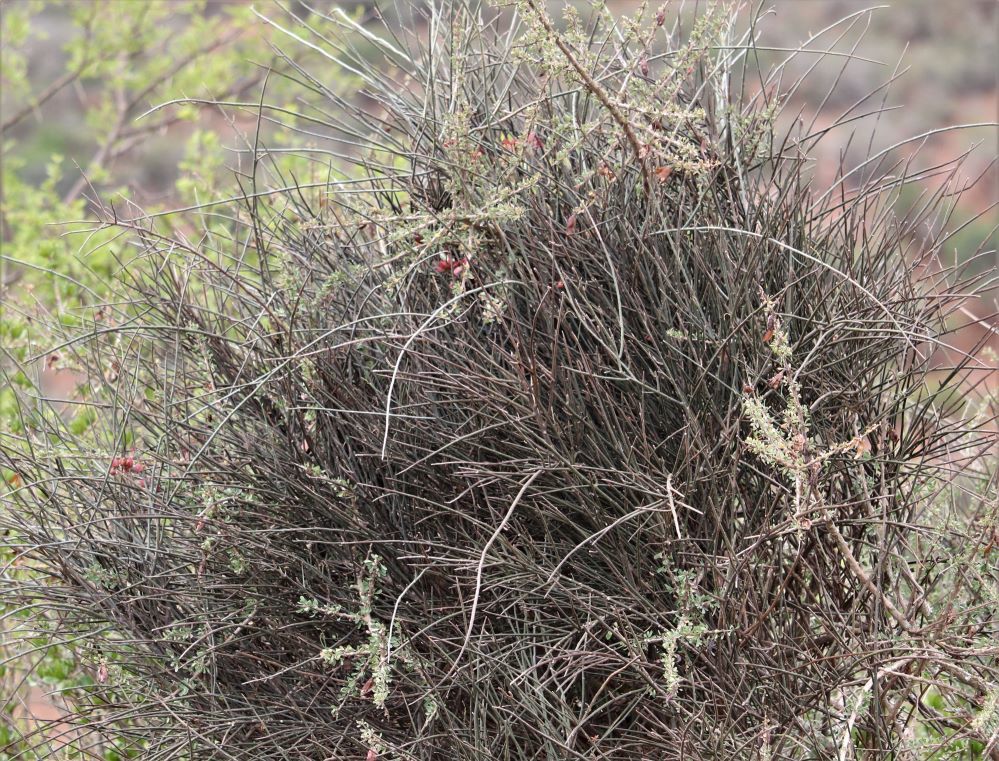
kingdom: Plantae
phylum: Tracheophyta
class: Magnoliopsida
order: Brassicales
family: Capparaceae
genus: Cadaba
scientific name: Cadaba aphylla
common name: Black storm
